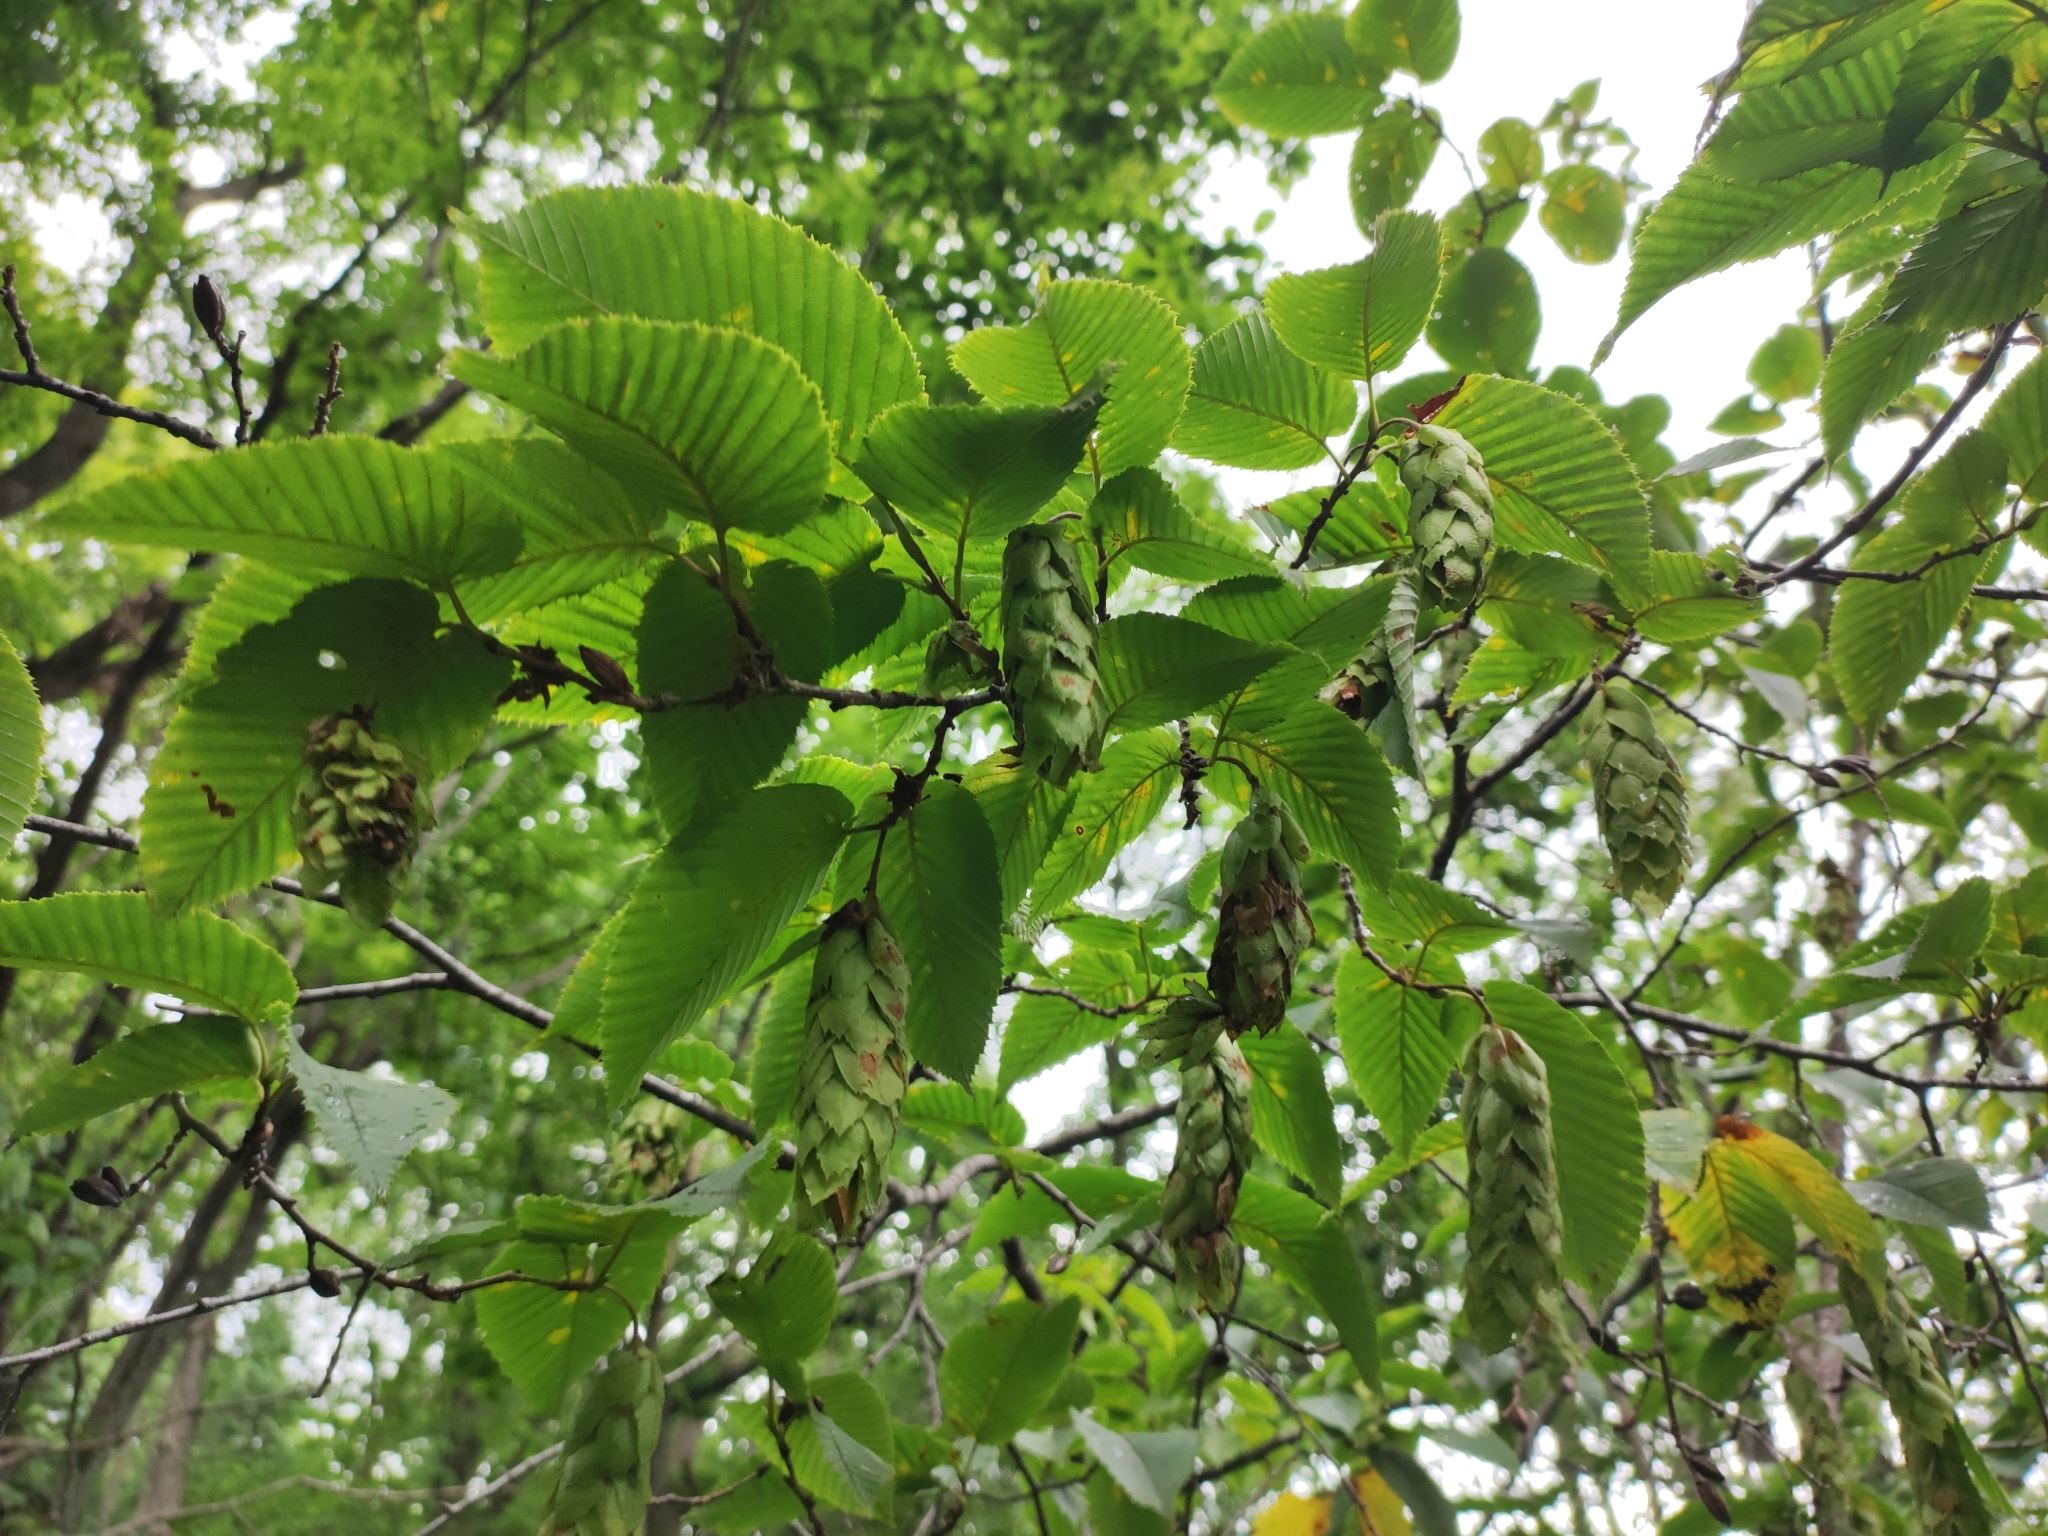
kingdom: Plantae
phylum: Tracheophyta
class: Magnoliopsida
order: Fagales
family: Betulaceae
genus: Carpinus
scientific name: Carpinus cordata
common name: Sawa hornbeam
